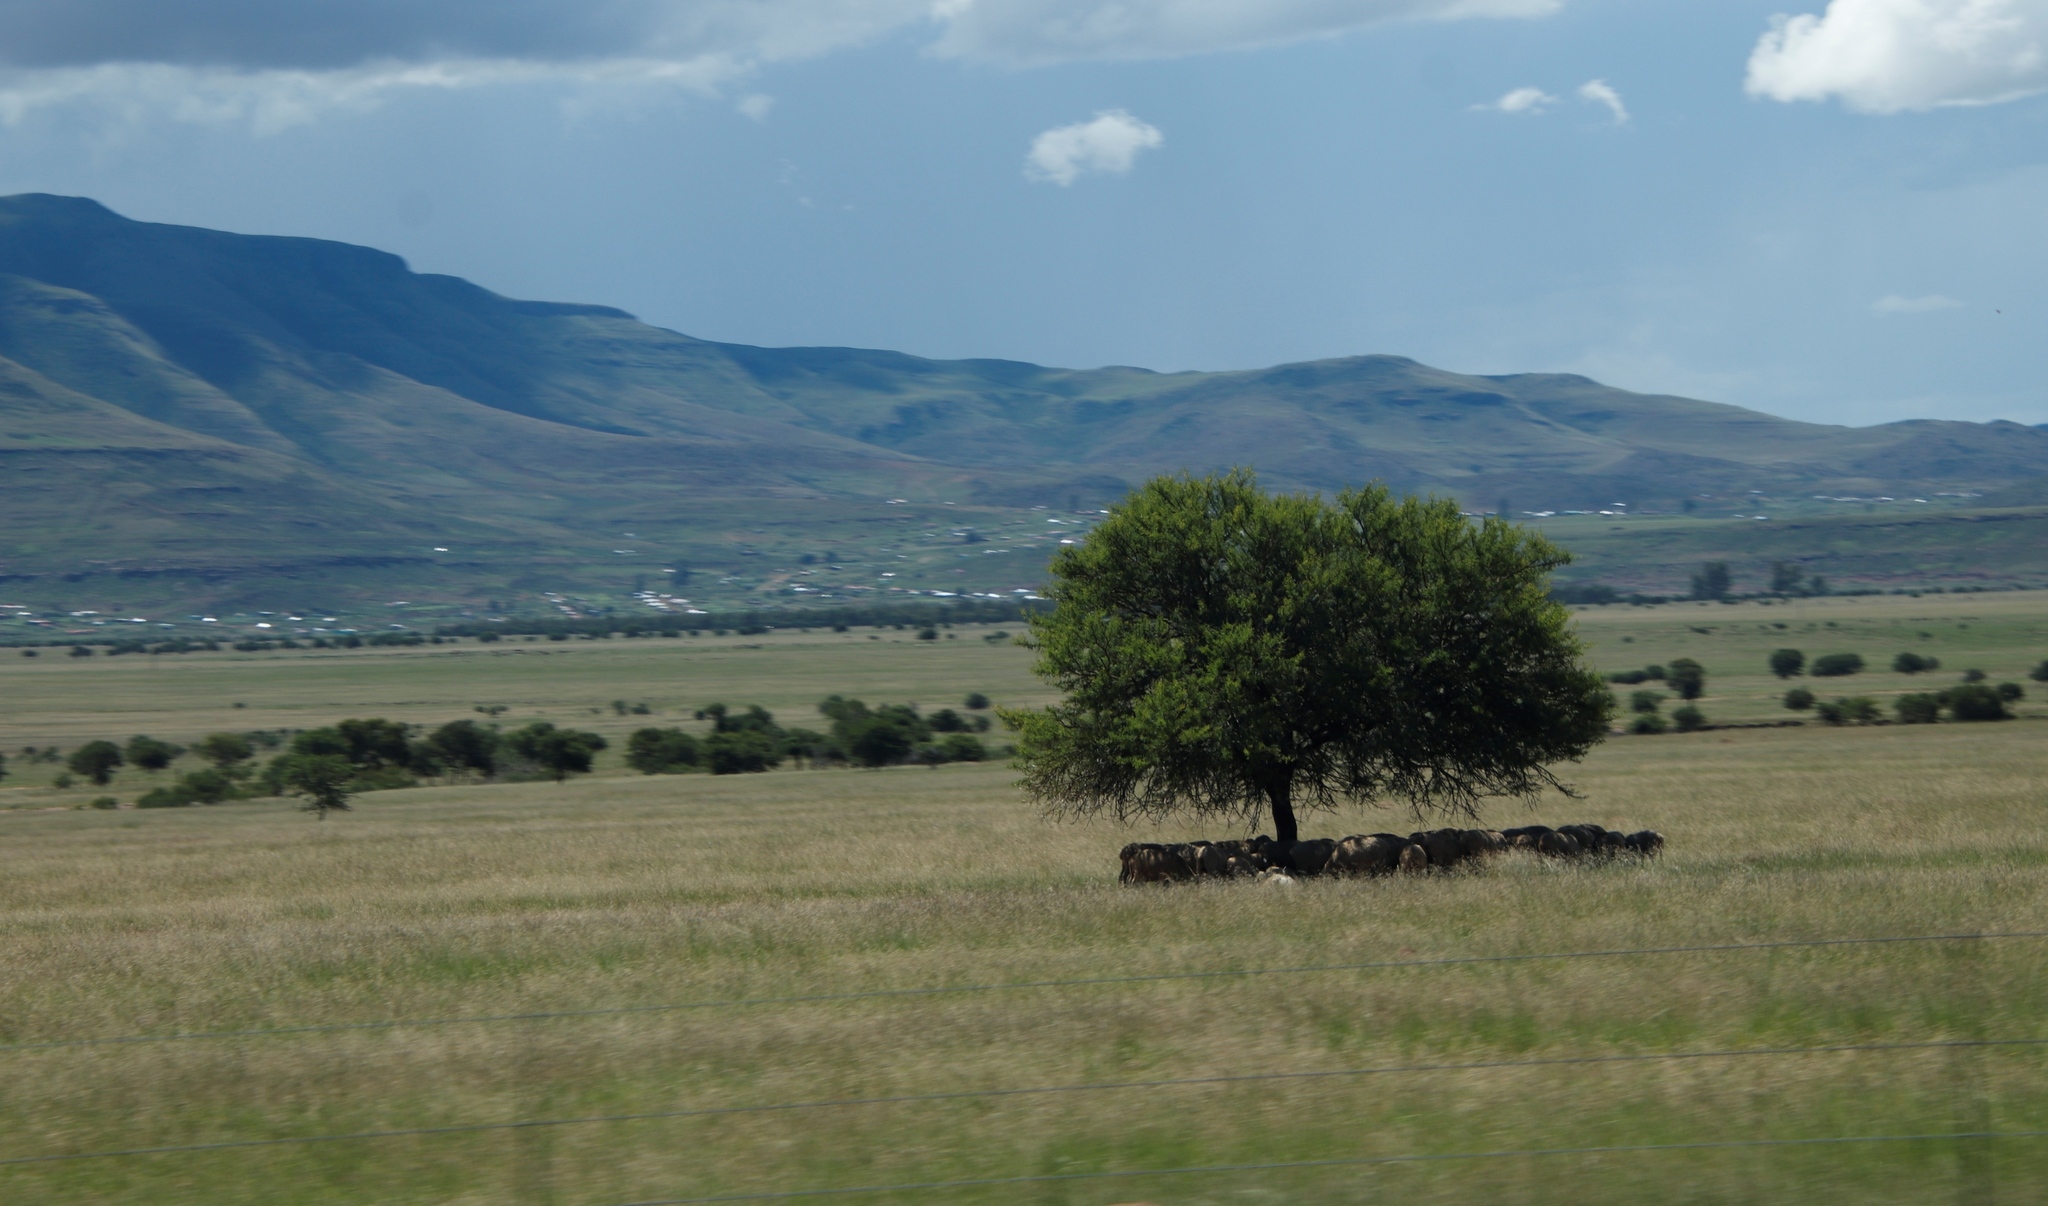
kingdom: Plantae
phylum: Tracheophyta
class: Magnoliopsida
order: Fabales
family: Fabaceae
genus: Vachellia
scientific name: Vachellia karroo
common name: Sweet thorn
